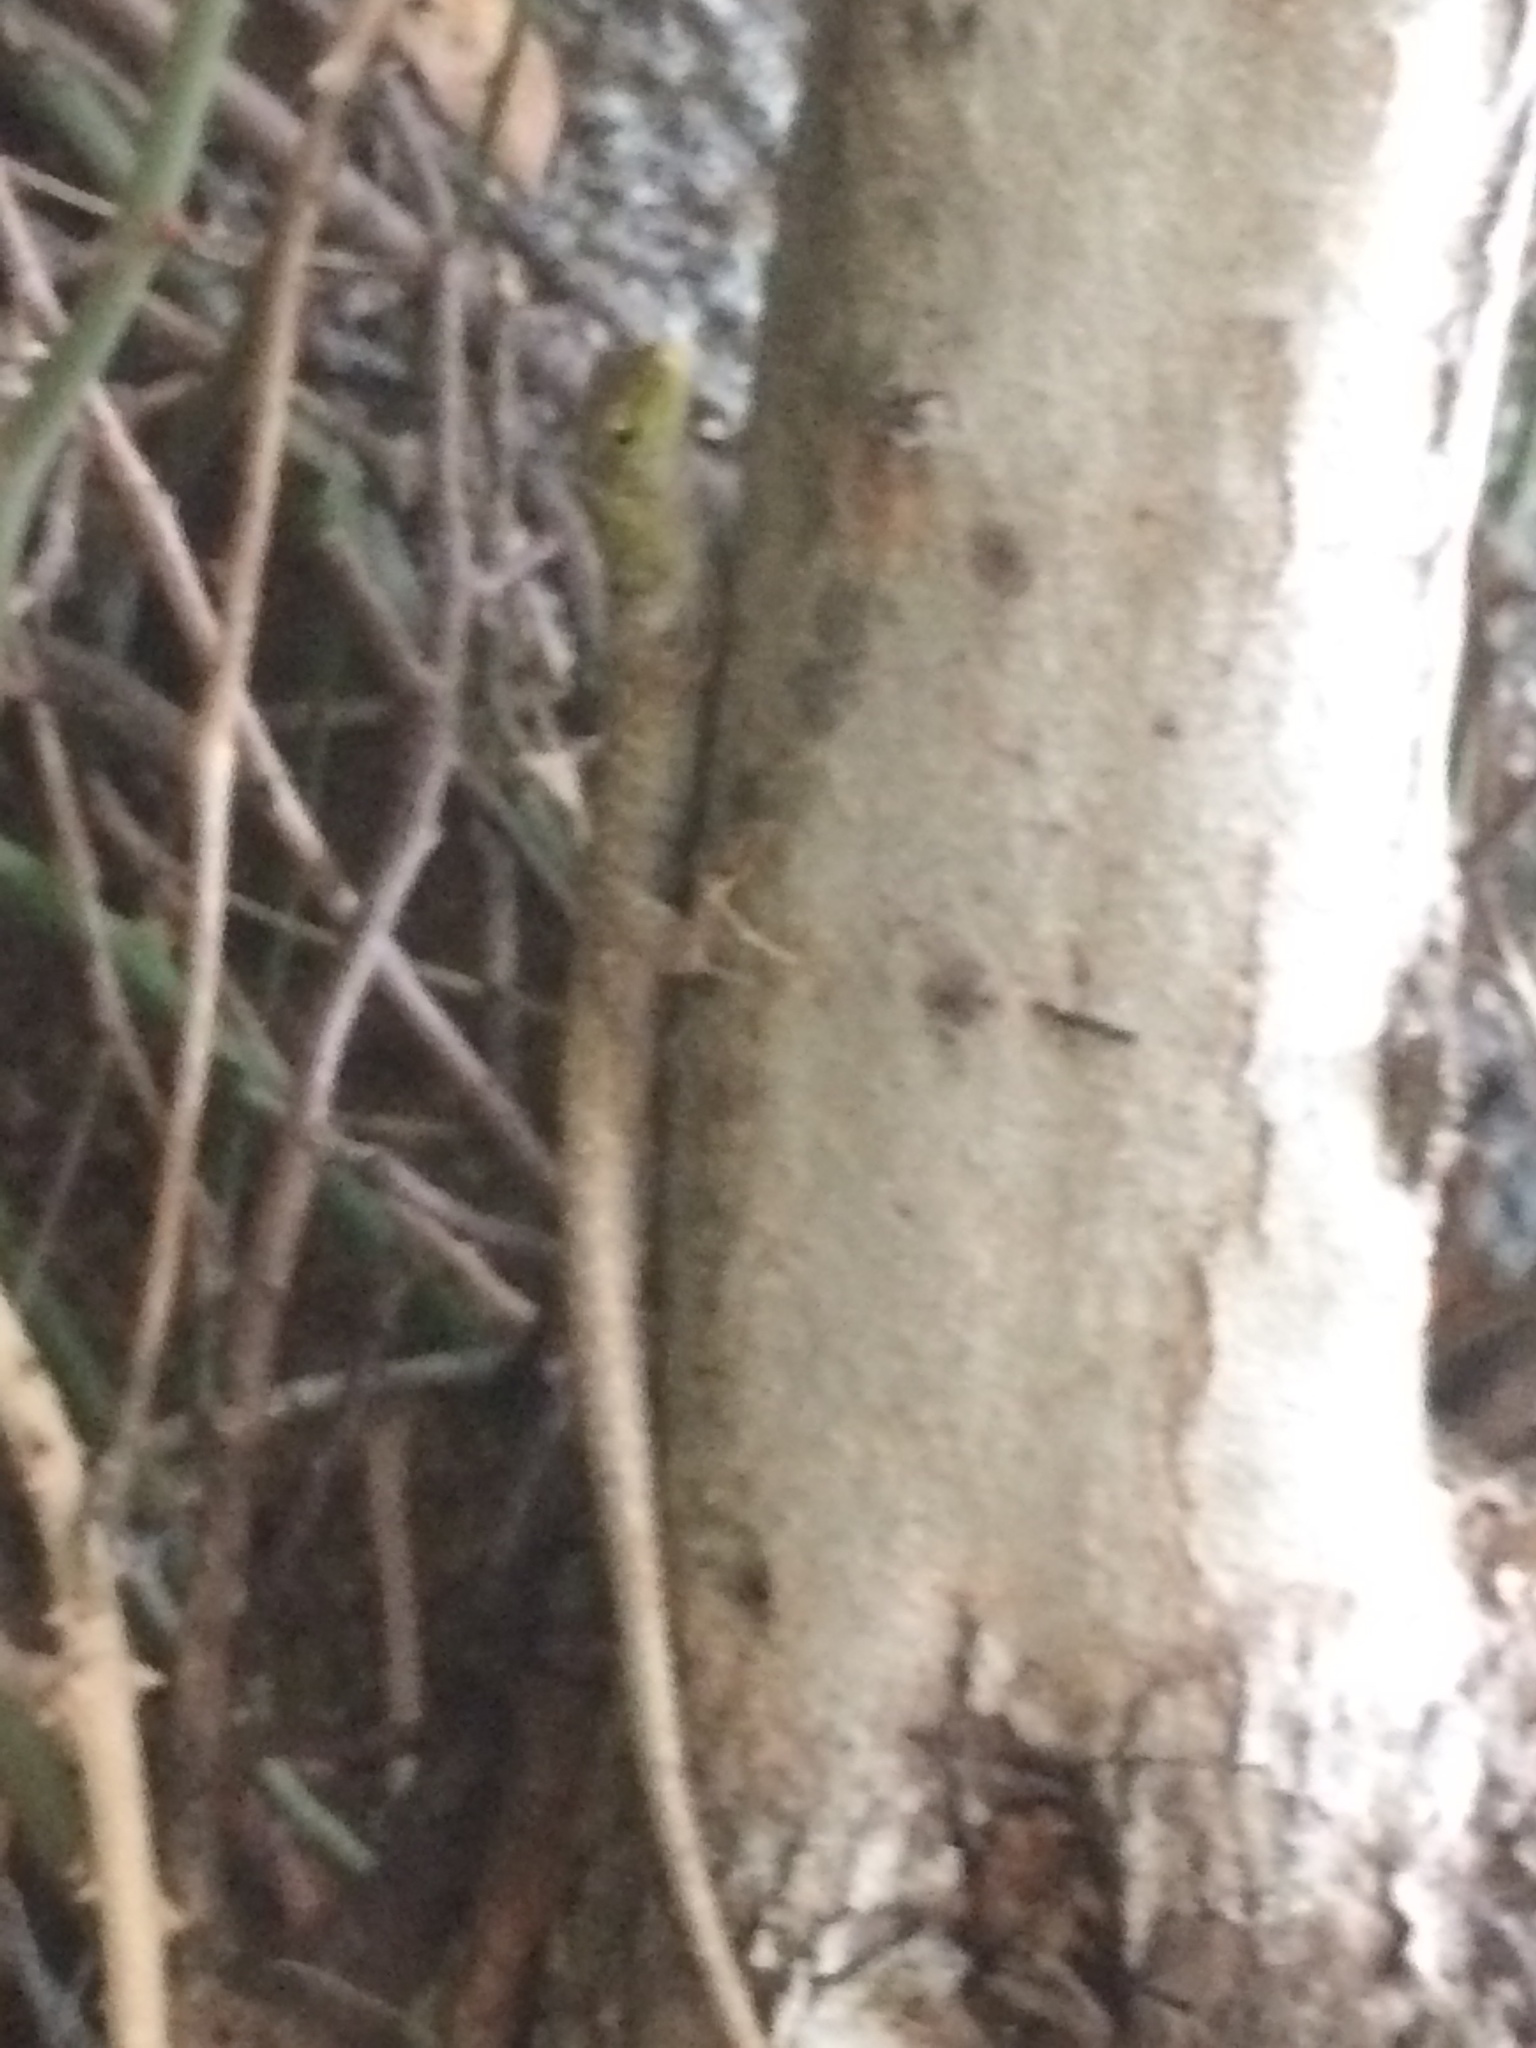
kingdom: Animalia
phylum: Chordata
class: Squamata
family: Lacertidae
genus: Podarcis
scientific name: Podarcis siculus
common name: Italian wall lizard
